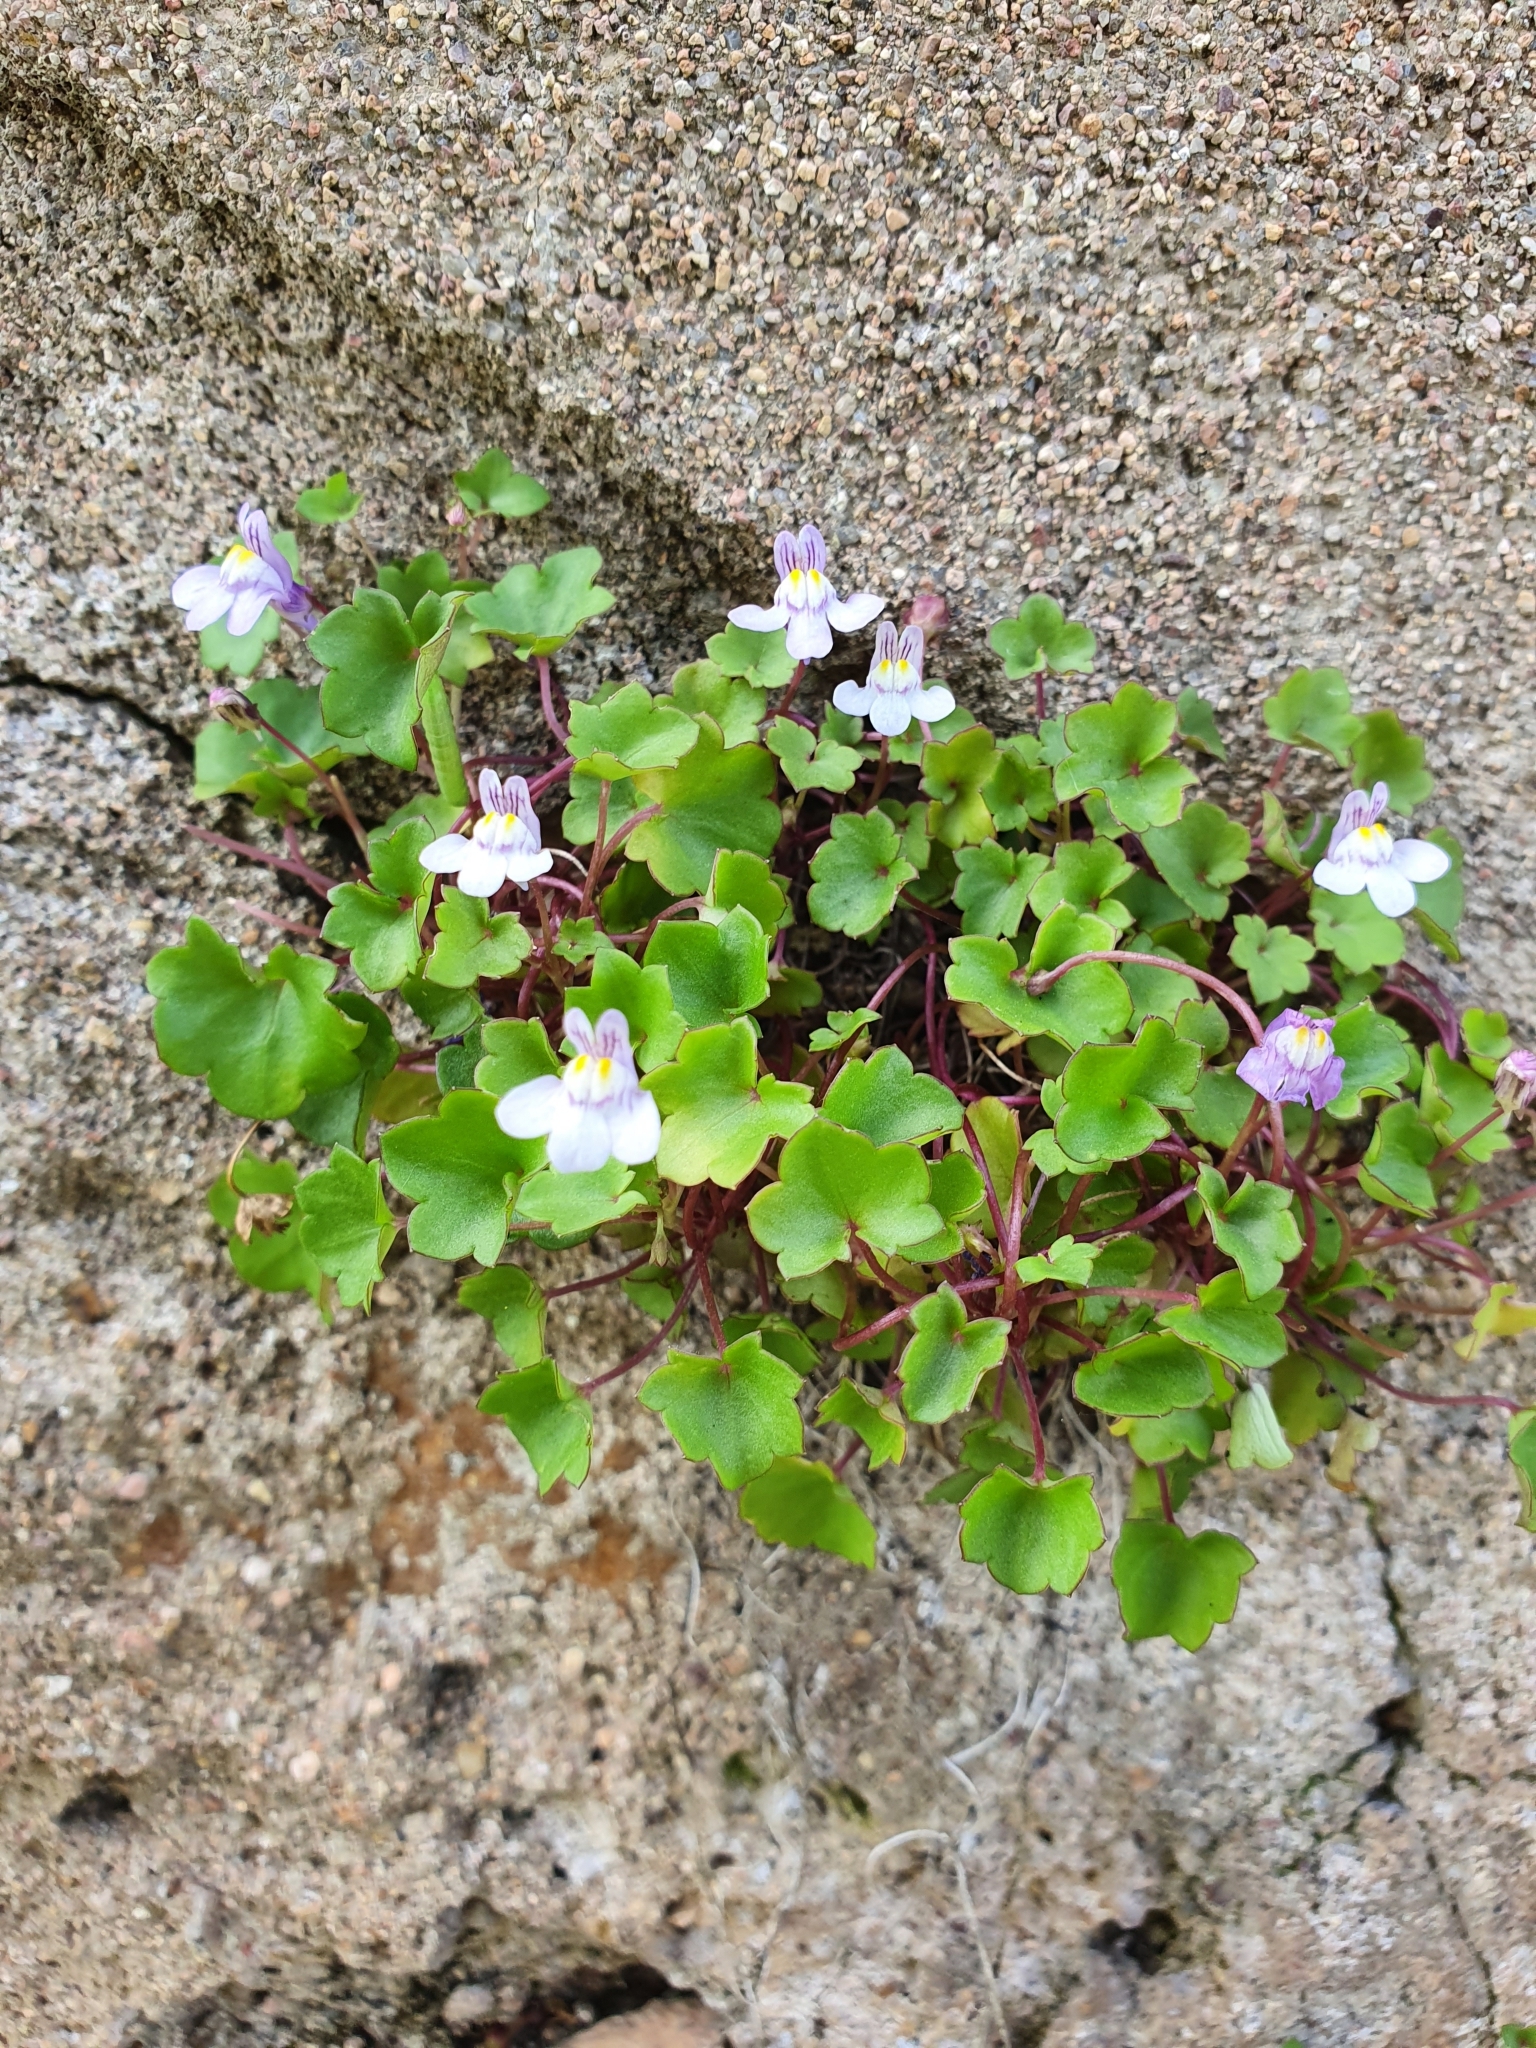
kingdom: Plantae
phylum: Tracheophyta
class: Magnoliopsida
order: Lamiales
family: Plantaginaceae
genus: Cymbalaria
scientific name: Cymbalaria muralis
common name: Ivy-leaved toadflax
